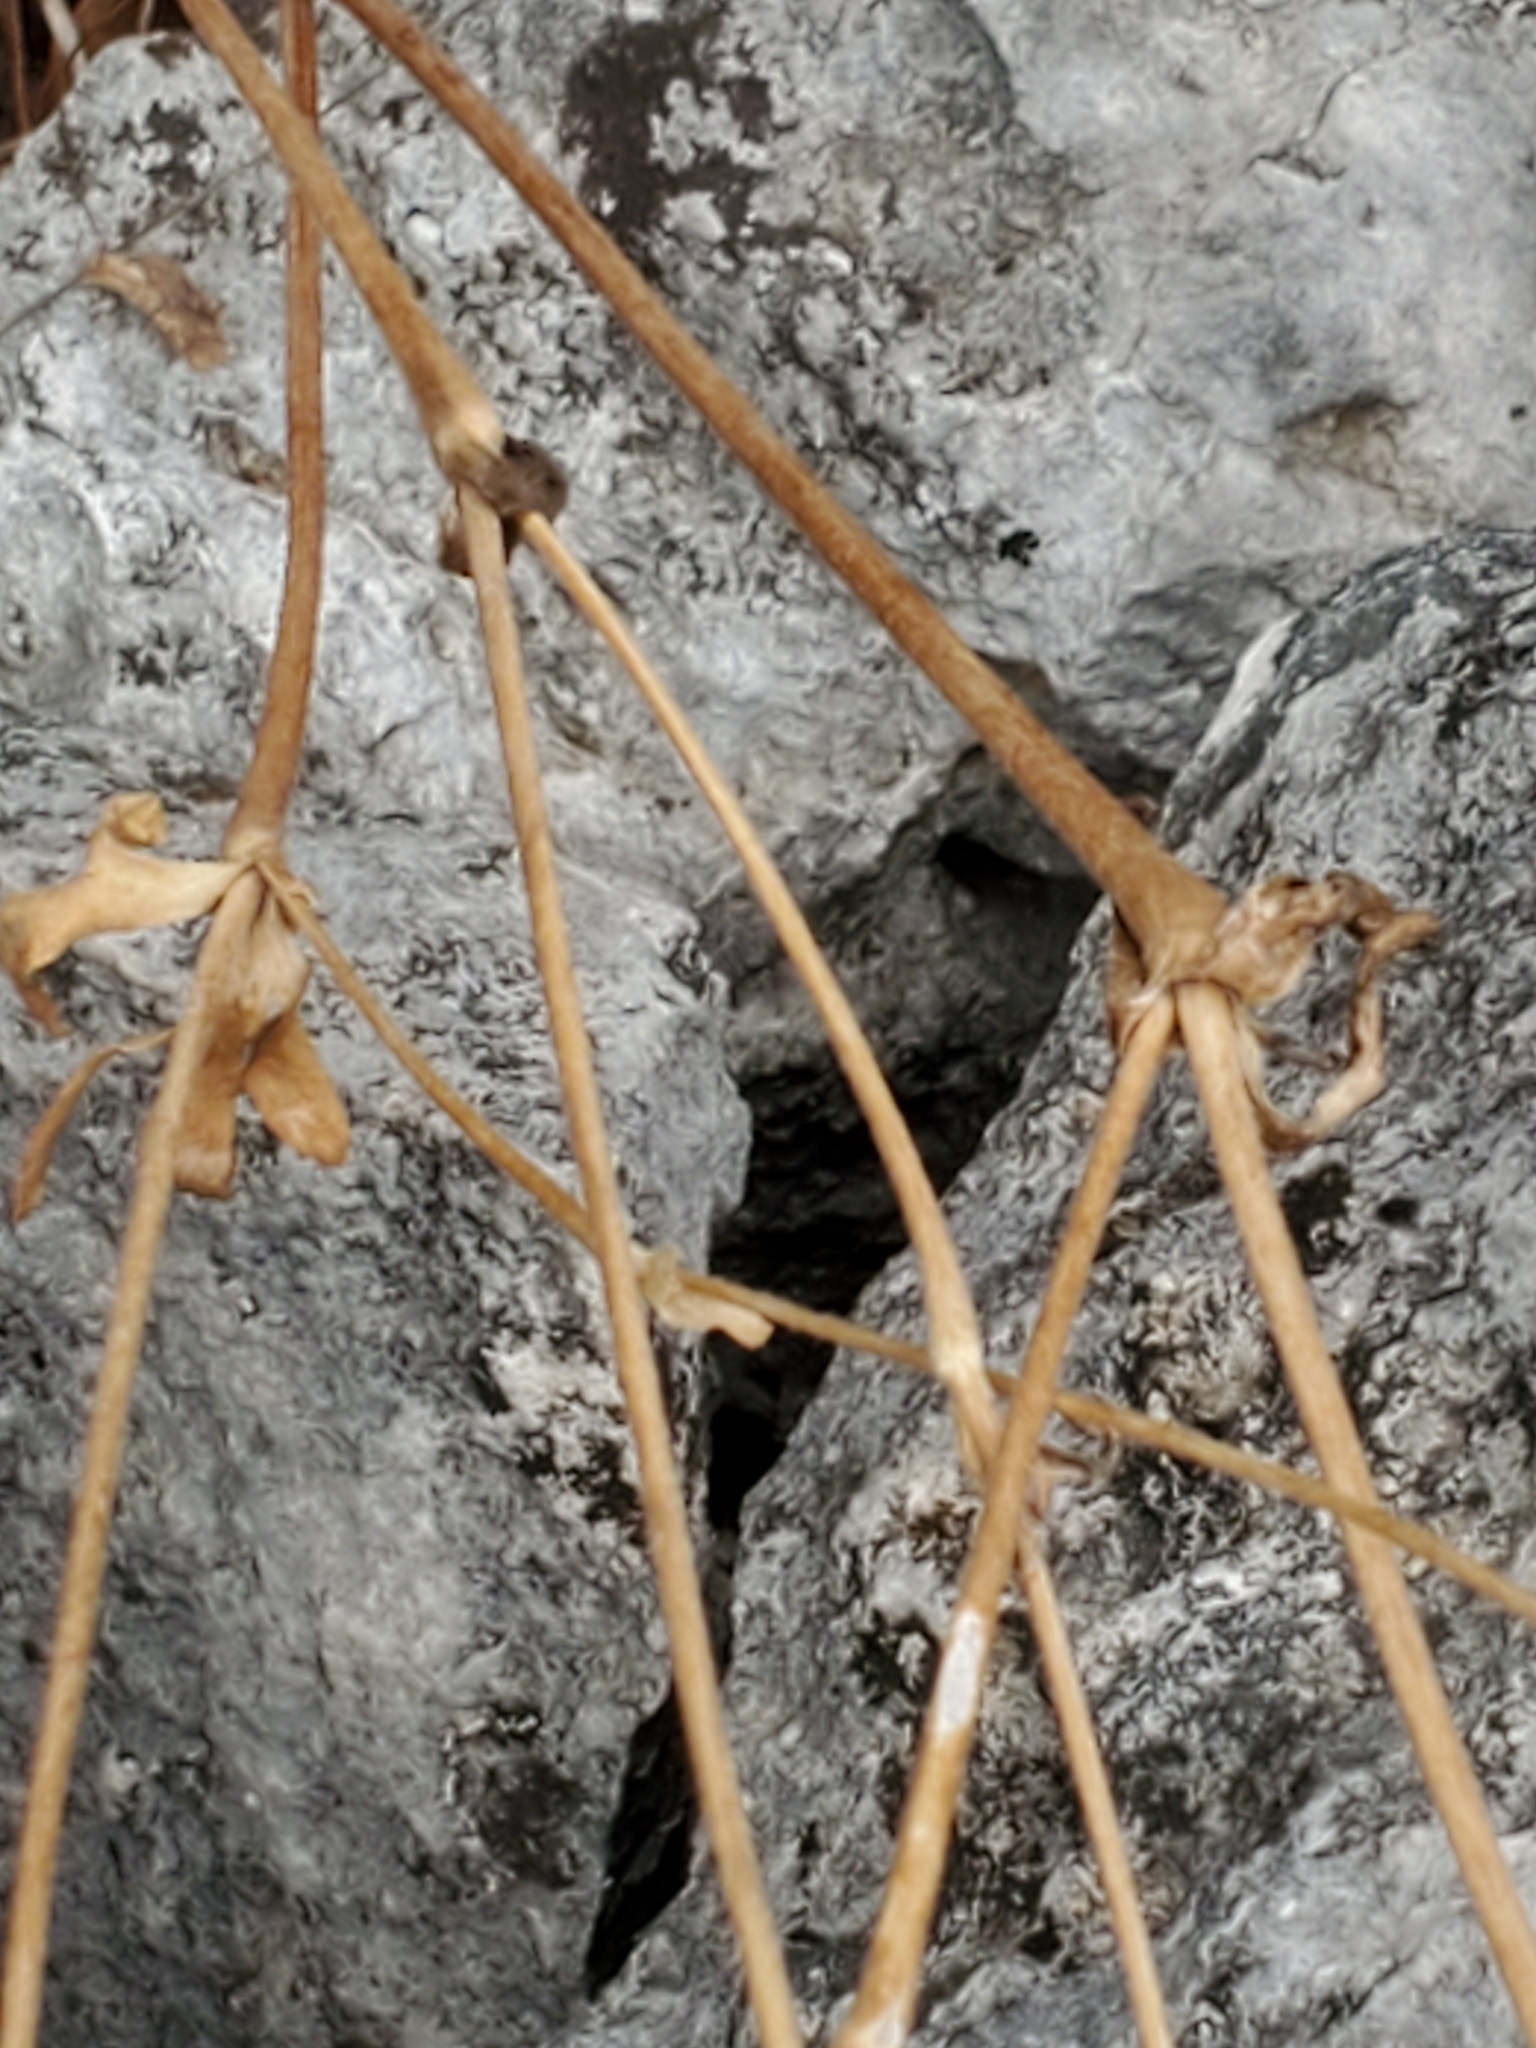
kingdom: Plantae
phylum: Tracheophyta
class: Magnoliopsida
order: Ranunculales
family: Ranunculaceae
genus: Anemone
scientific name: Anemone edwardsiana
